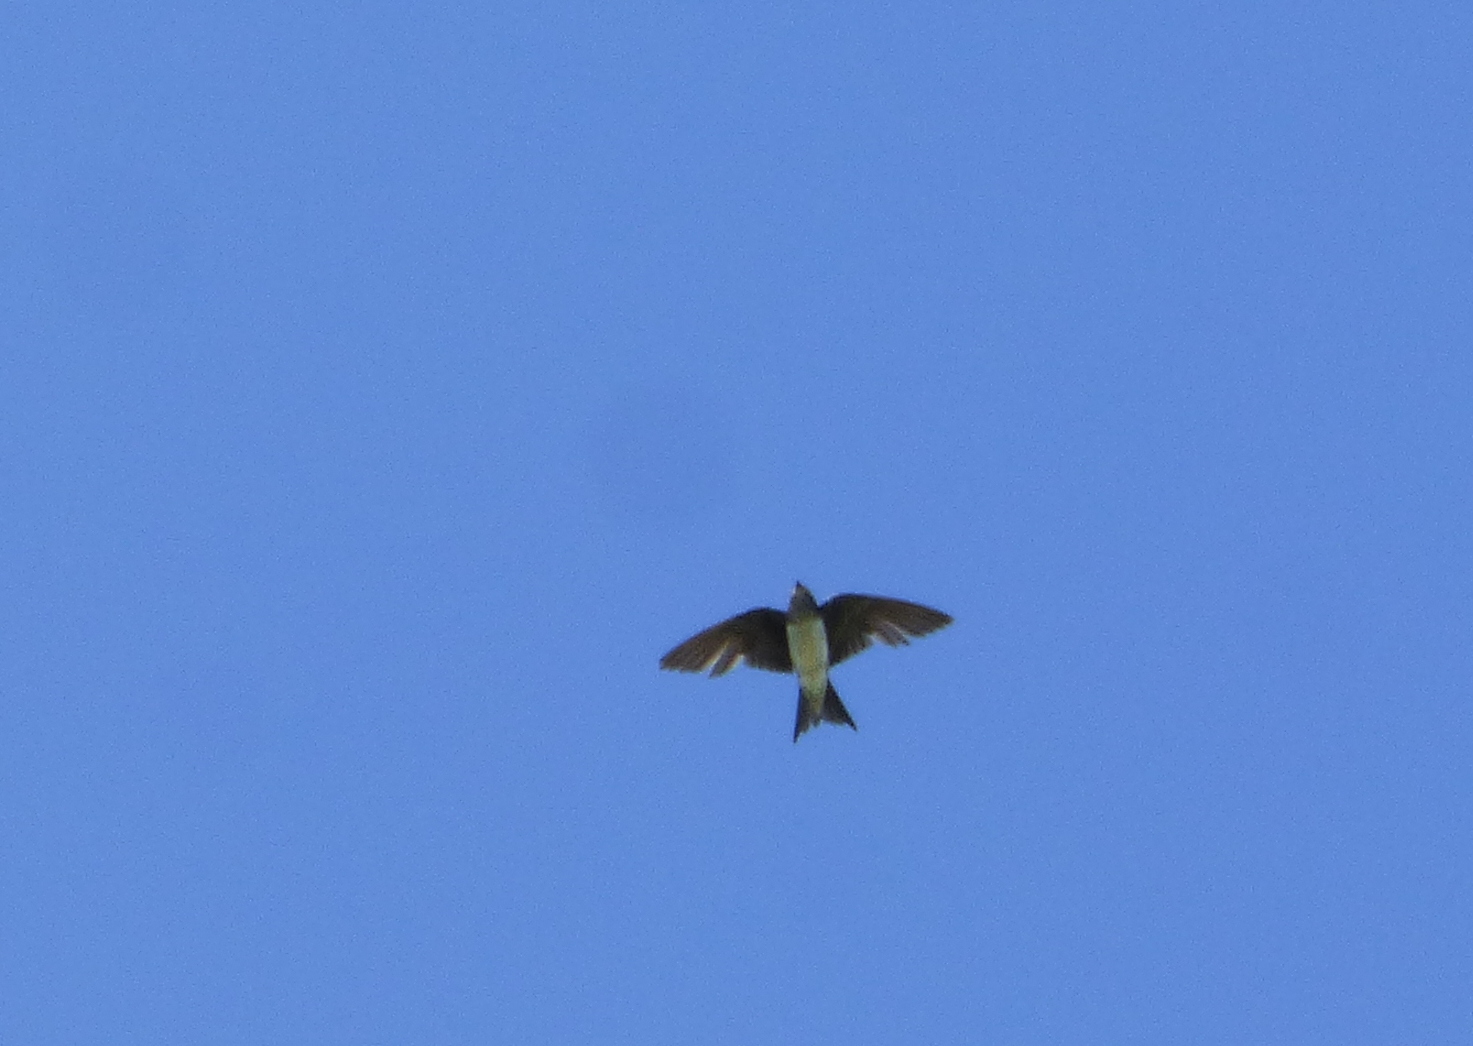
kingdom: Animalia
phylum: Chordata
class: Aves
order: Passeriformes
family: Hirundinidae
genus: Progne
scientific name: Progne chalybea
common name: Grey-breasted martin
